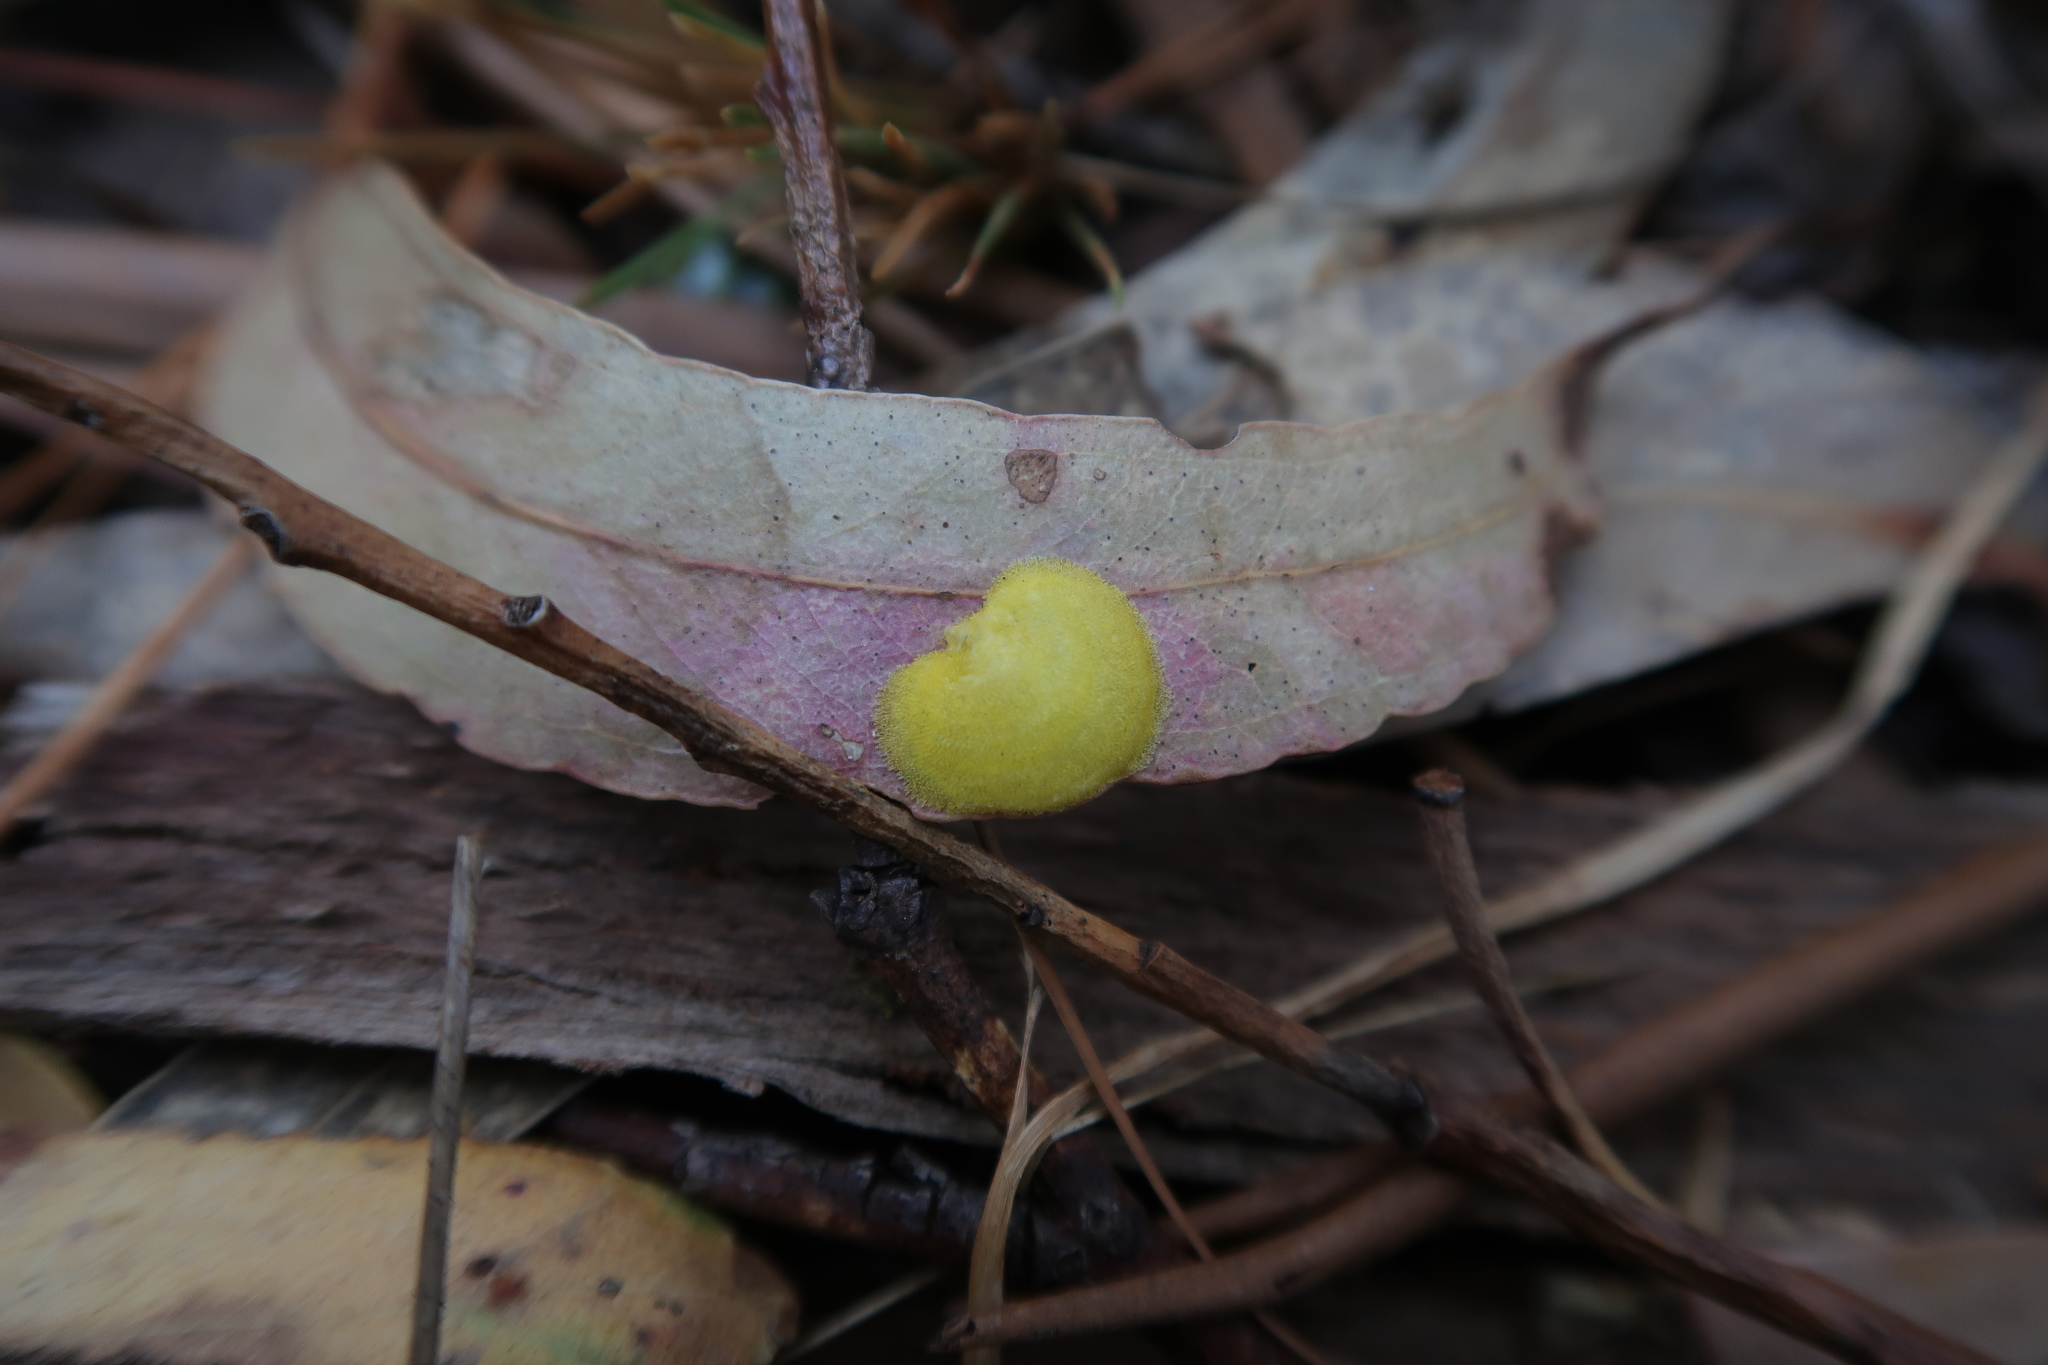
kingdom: Animalia
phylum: Arthropoda
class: Insecta
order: Hemiptera
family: Aphalaridae
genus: Creiis
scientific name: Creiis longipennis
